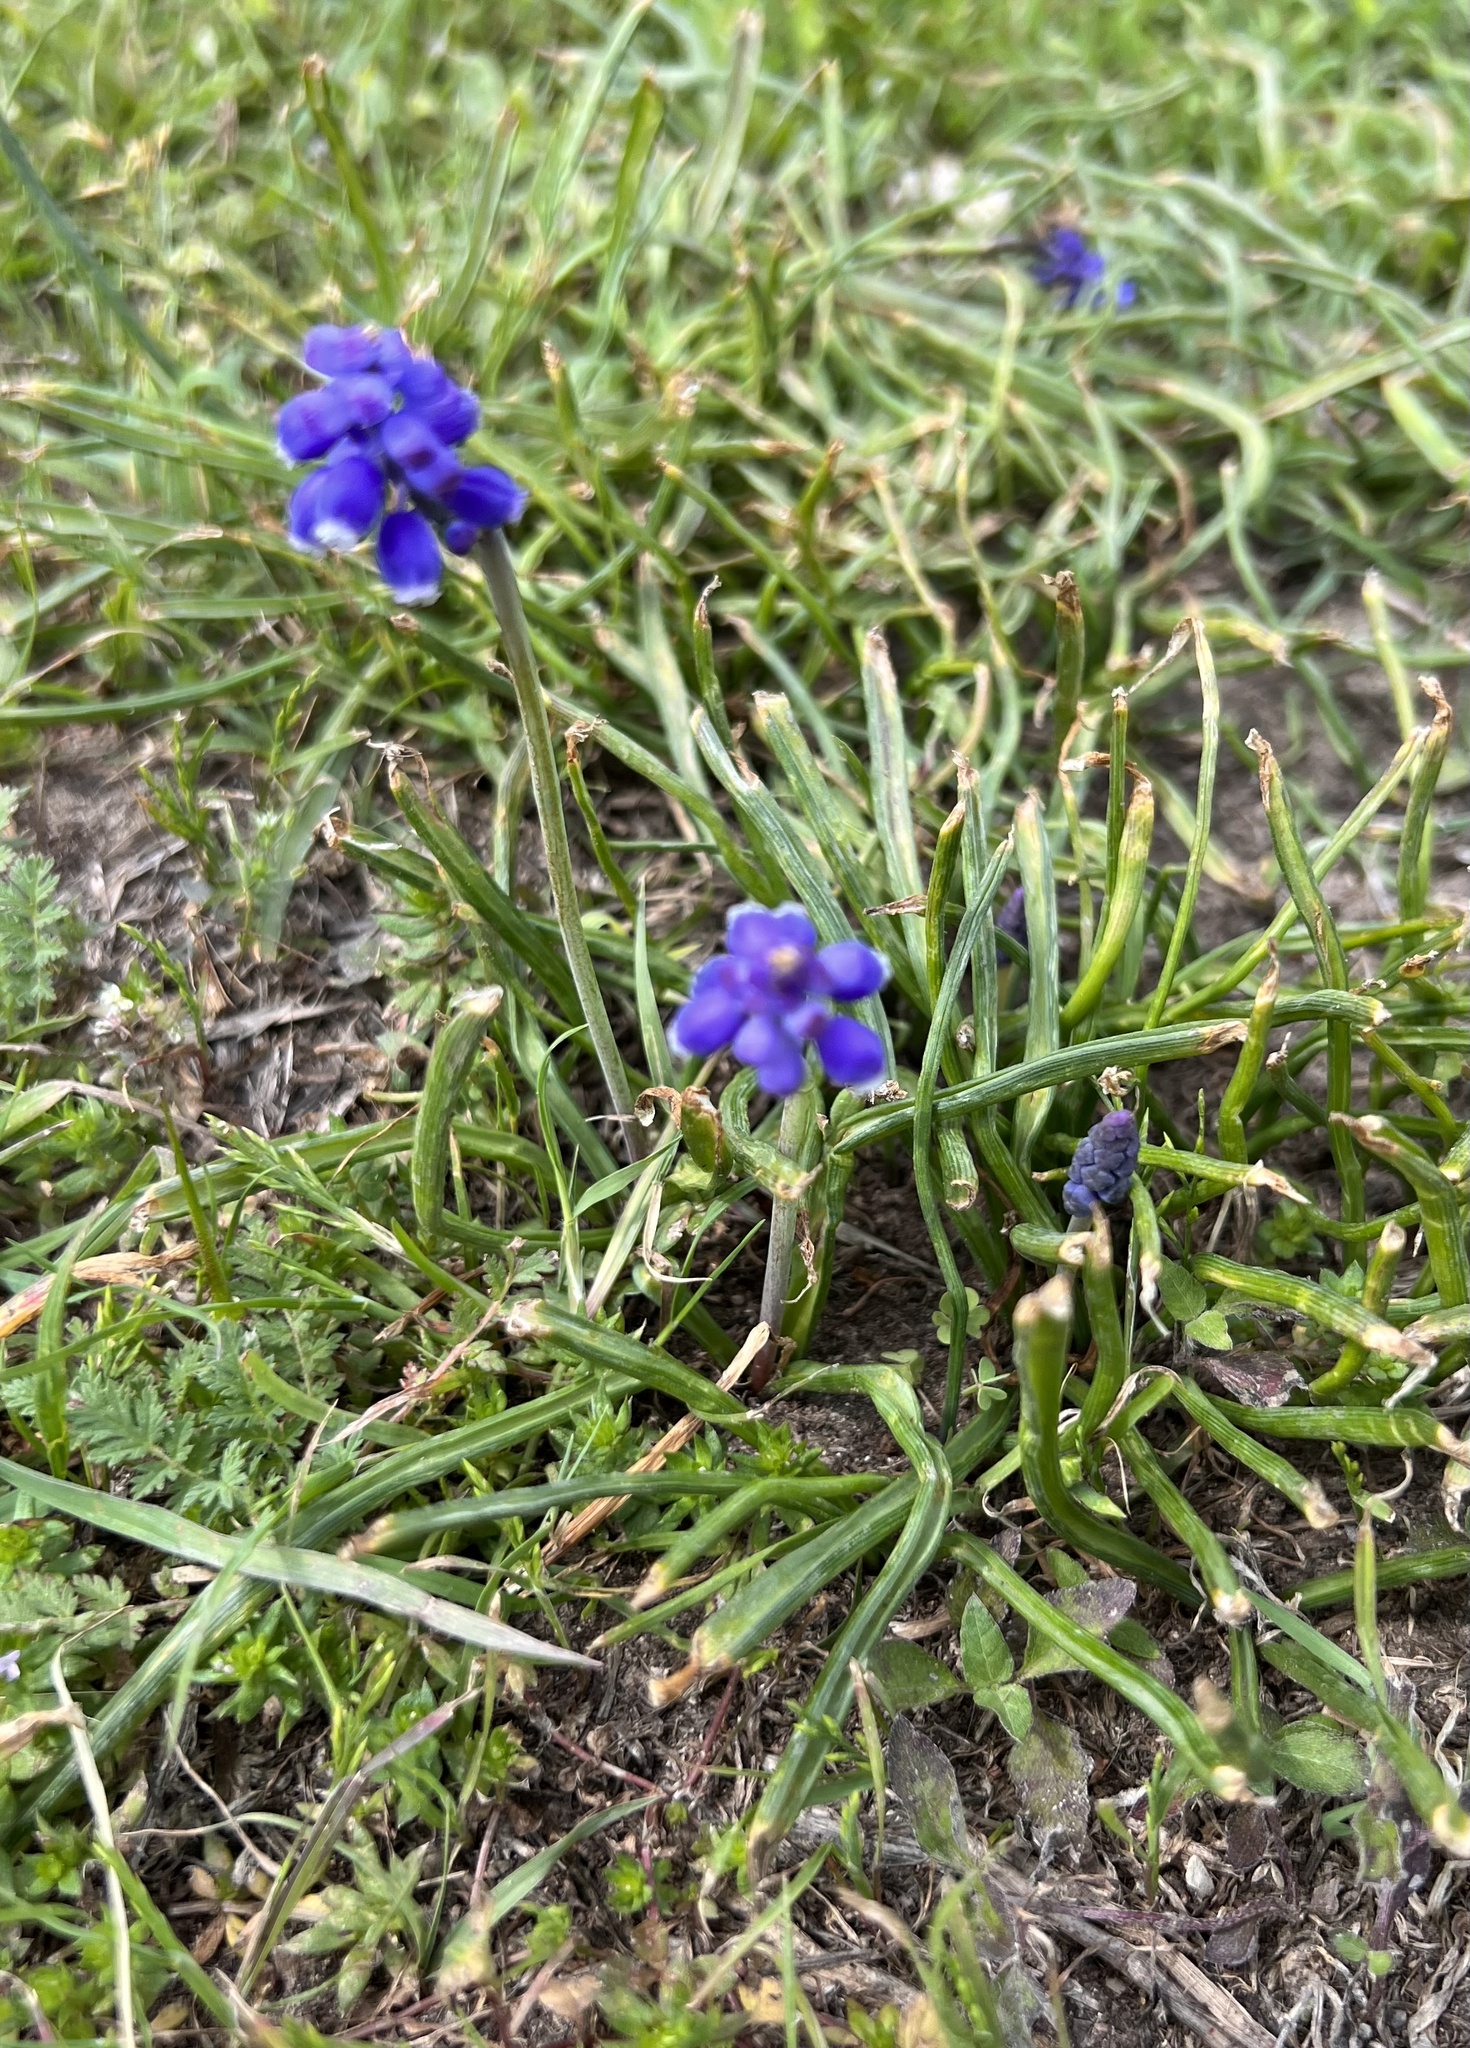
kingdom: Plantae
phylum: Tracheophyta
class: Liliopsida
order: Asparagales
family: Asparagaceae
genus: Muscari
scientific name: Muscari neglectum
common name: Grape-hyacinth
